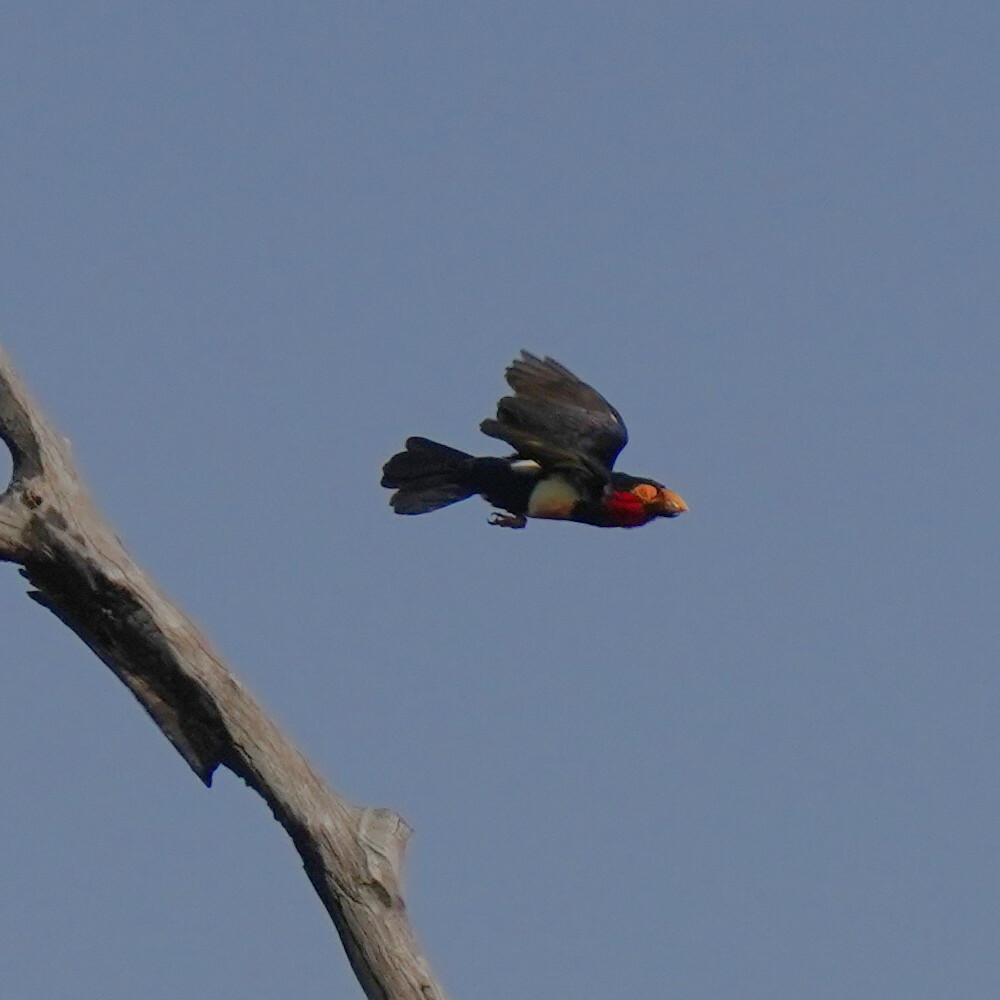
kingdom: Animalia
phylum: Chordata
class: Aves
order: Piciformes
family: Lybiidae
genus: Lybius
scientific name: Lybius dubius
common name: Bearded barbet
